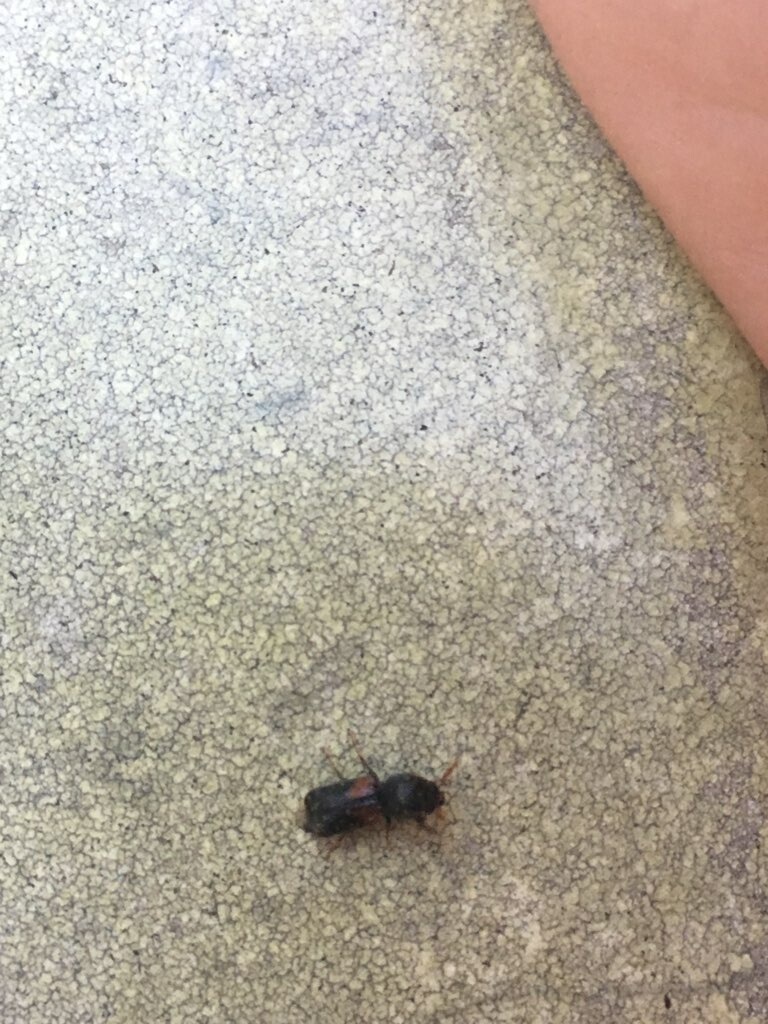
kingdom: Animalia
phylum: Arthropoda
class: Insecta
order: Coleoptera
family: Bostrichidae
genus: Xylobiops
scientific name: Xylobiops basilaris
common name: Red-shouldered bostrichid
